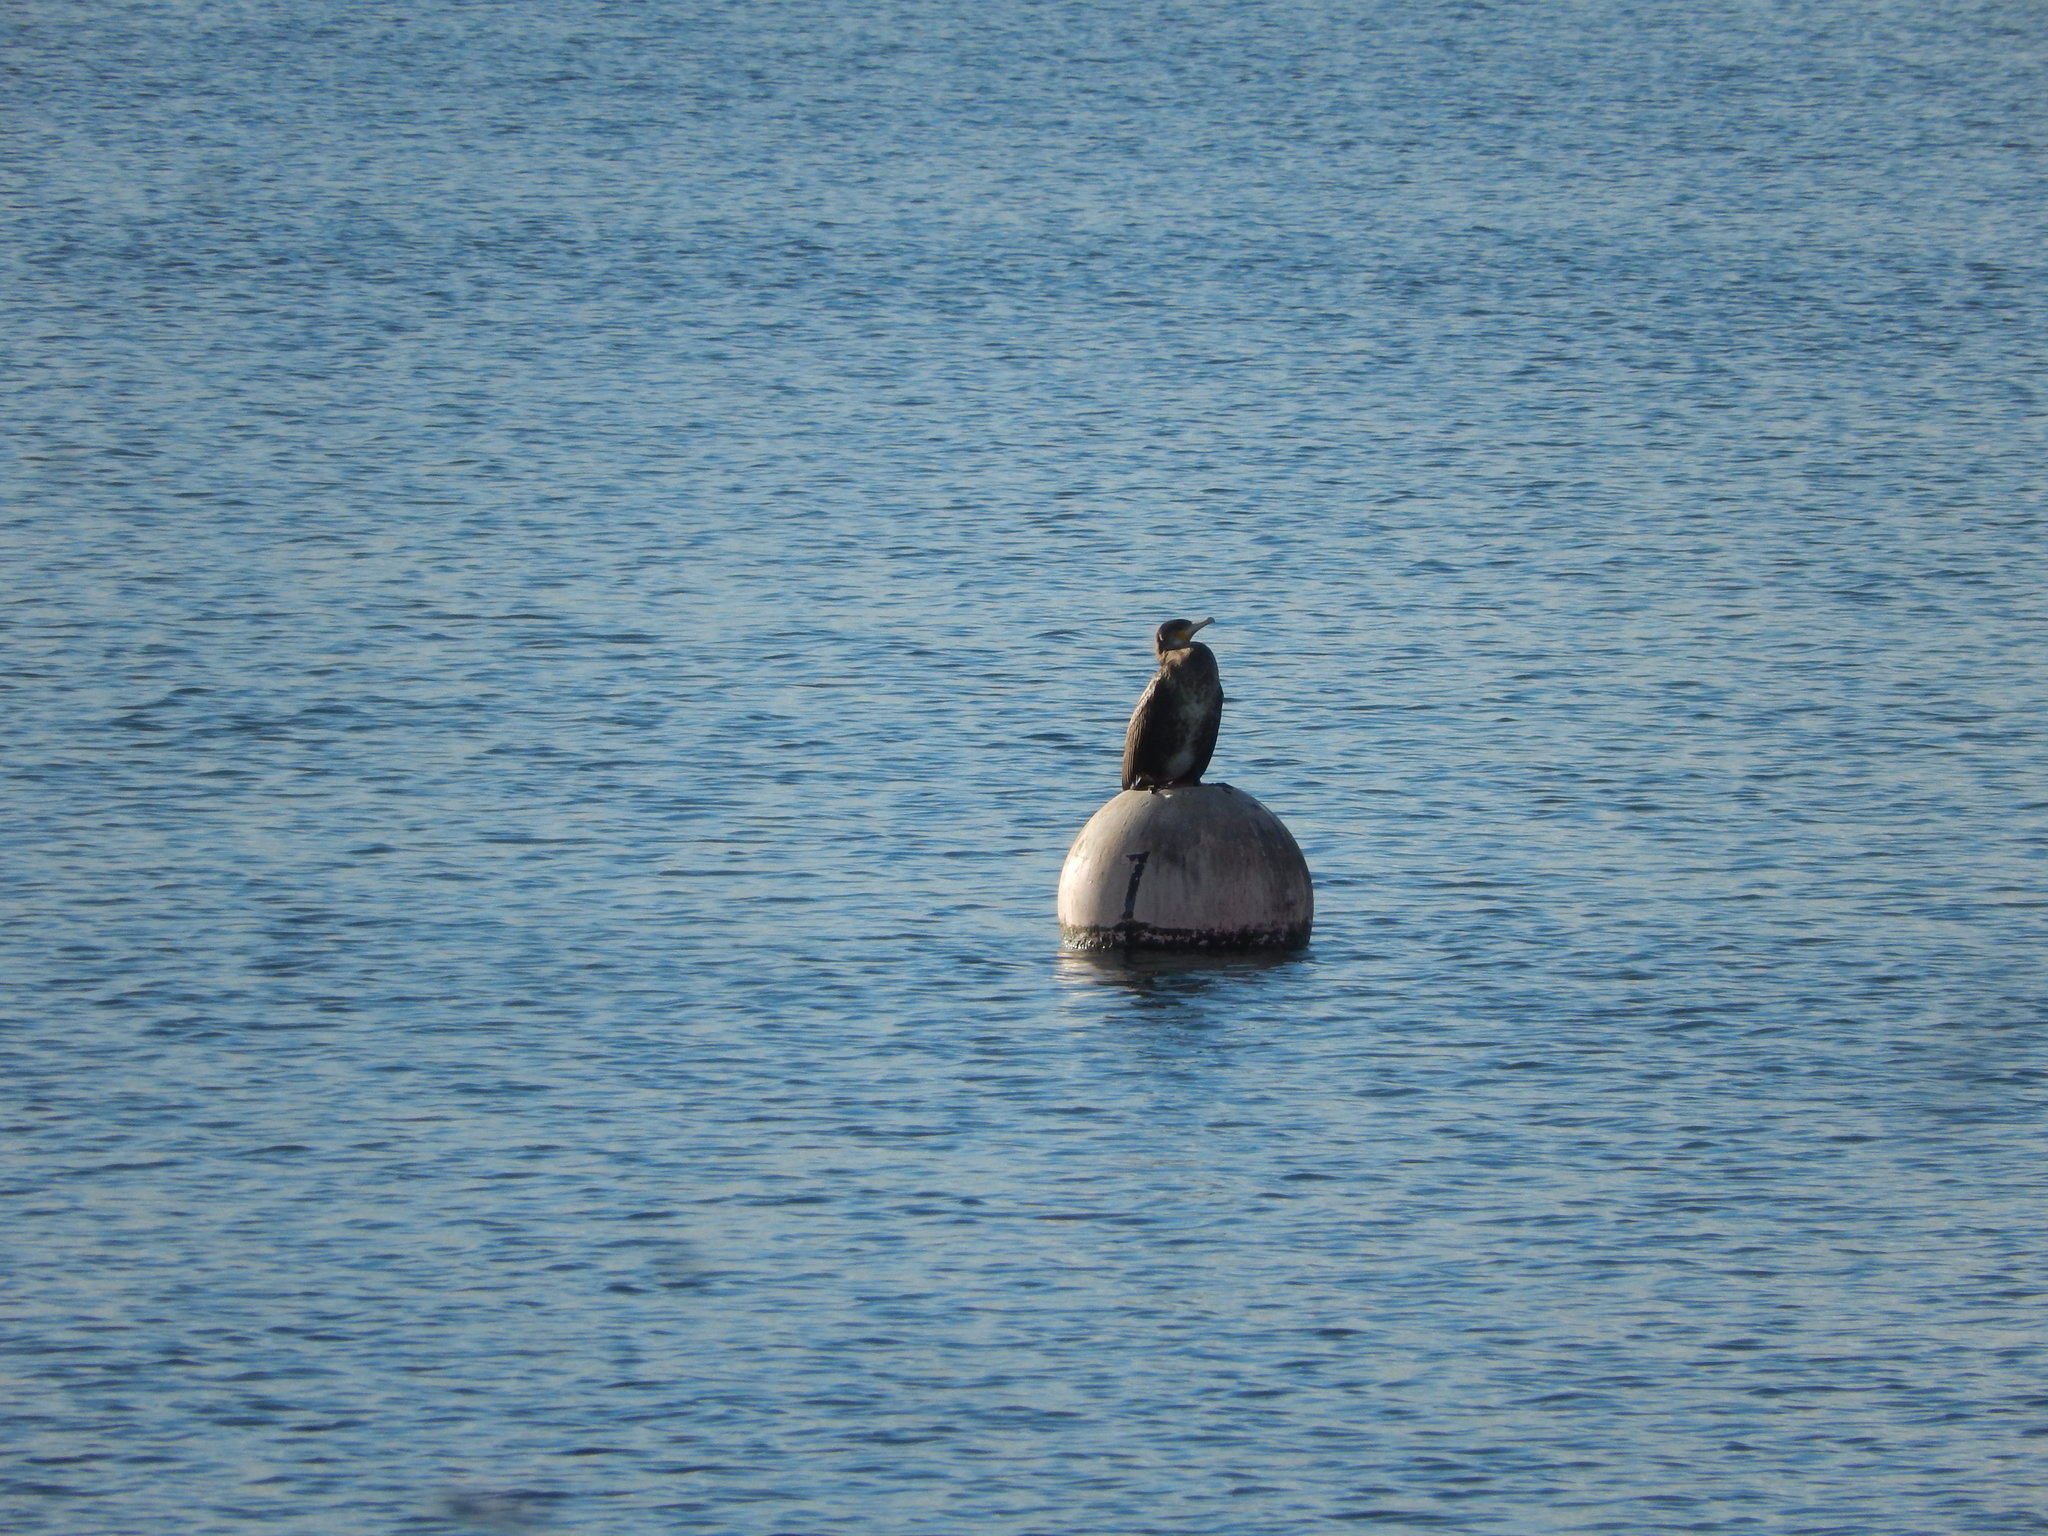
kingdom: Animalia
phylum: Chordata
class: Aves
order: Suliformes
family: Phalacrocoracidae
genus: Phalacrocorax
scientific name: Phalacrocorax carbo
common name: Great cormorant
